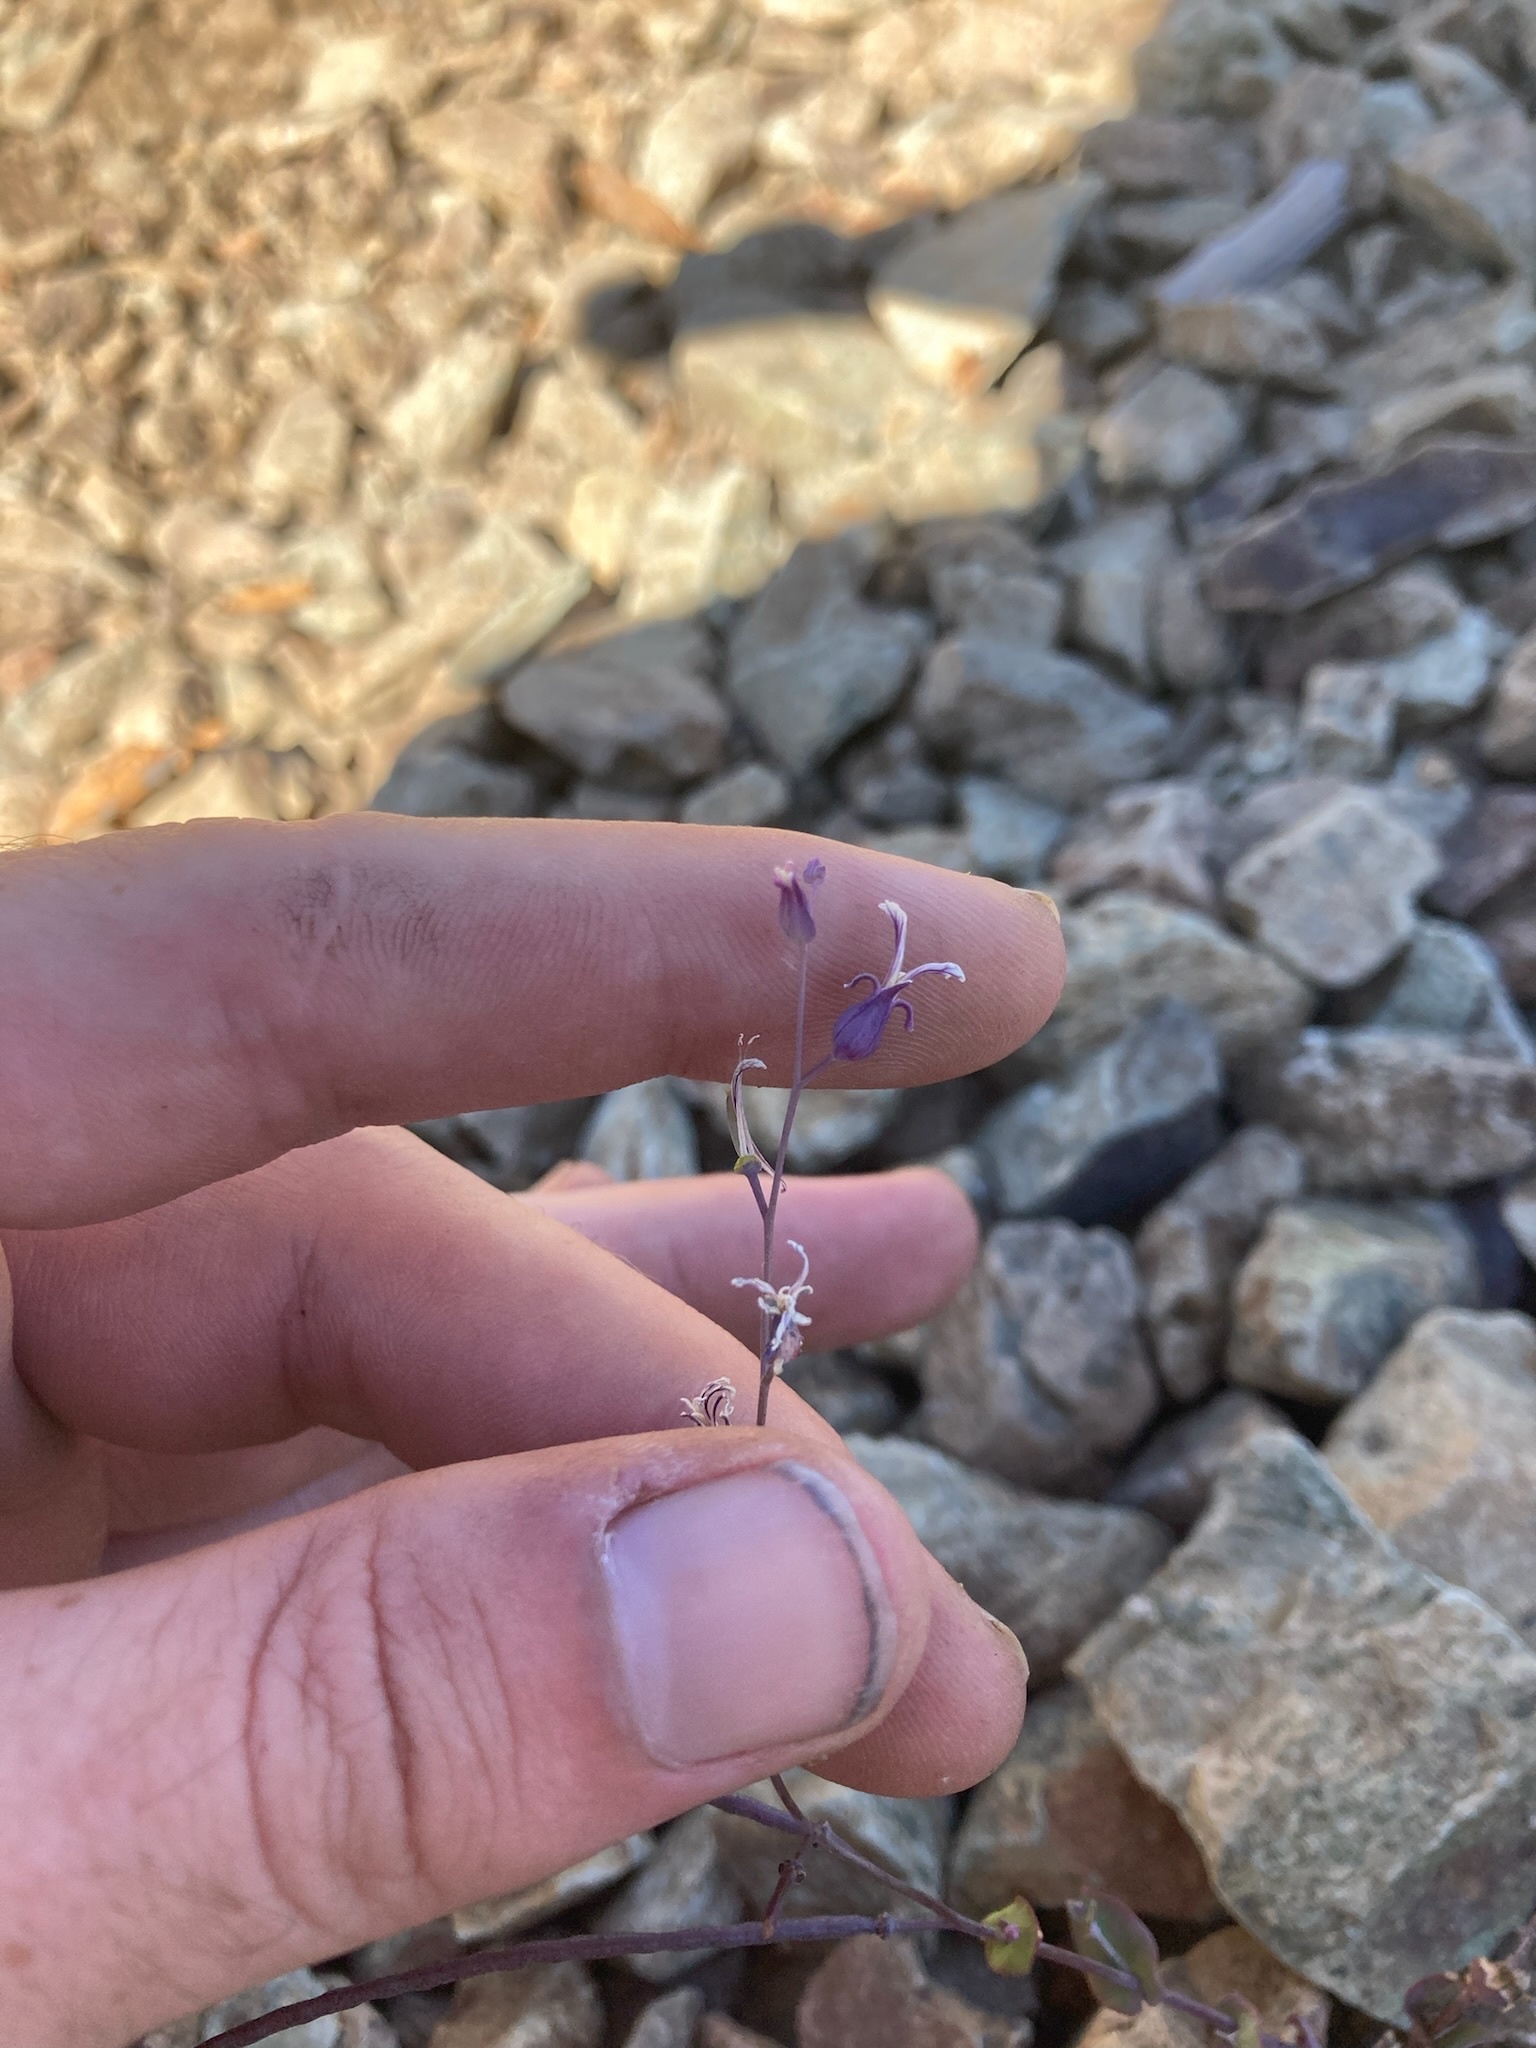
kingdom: Plantae
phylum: Tracheophyta
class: Magnoliopsida
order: Brassicales
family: Brassicaceae
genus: Streptanthus
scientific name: Streptanthus tortuosus
